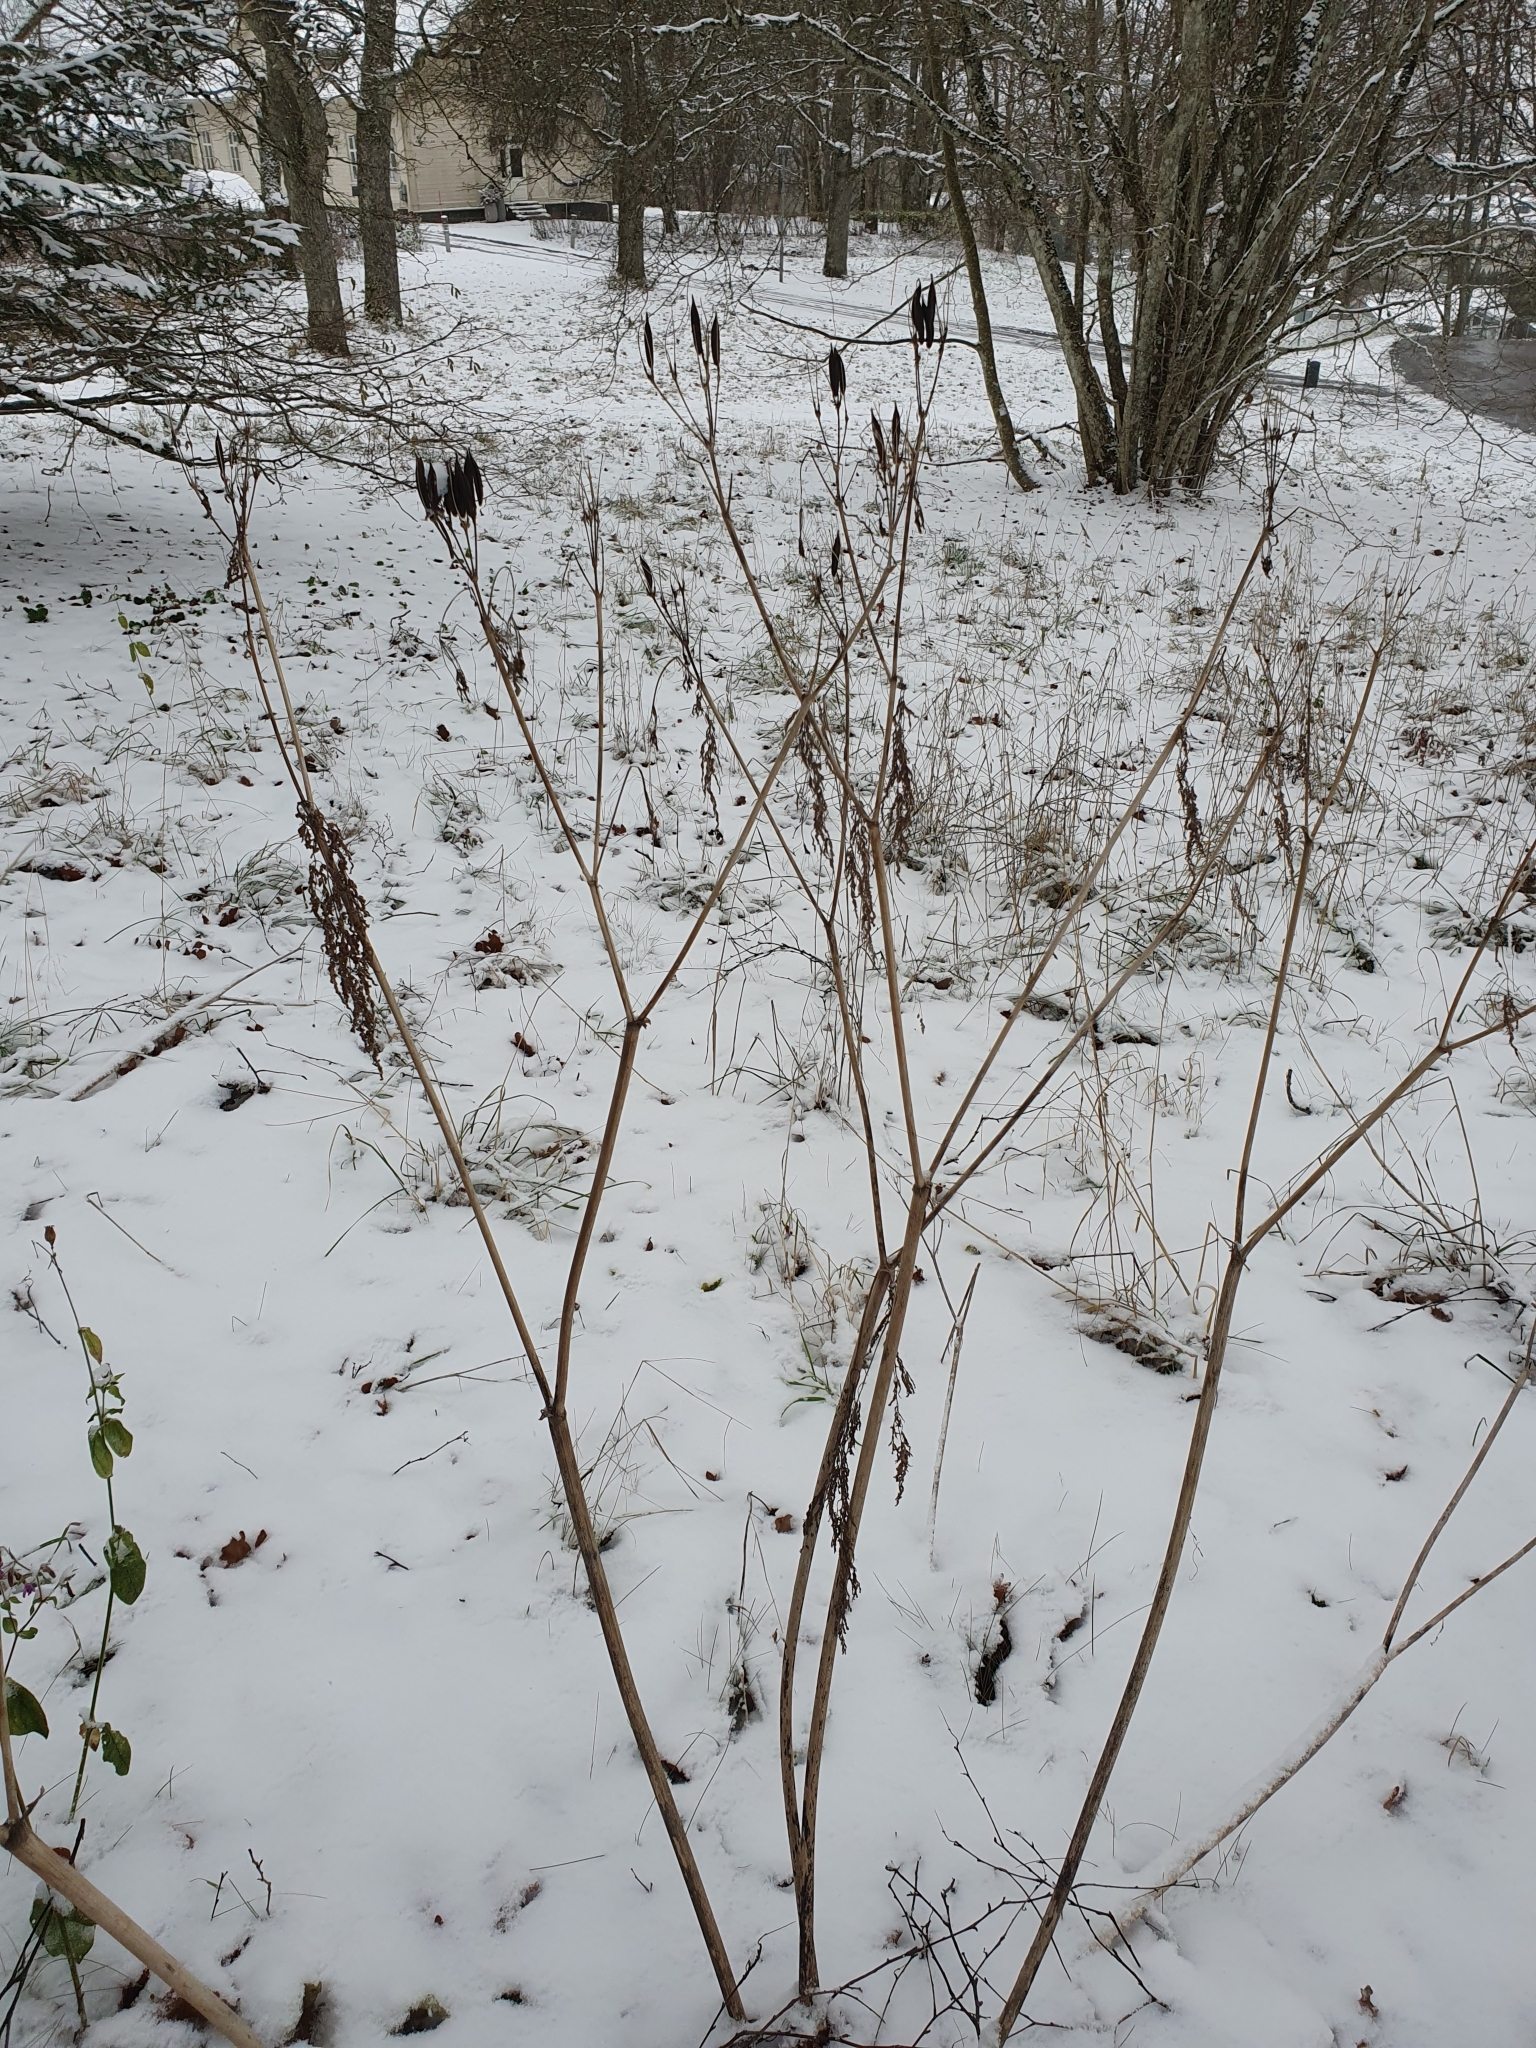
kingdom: Plantae
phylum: Tracheophyta
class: Magnoliopsida
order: Apiales
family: Apiaceae
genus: Myrrhis
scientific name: Myrrhis odorata
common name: Sweet cicely
